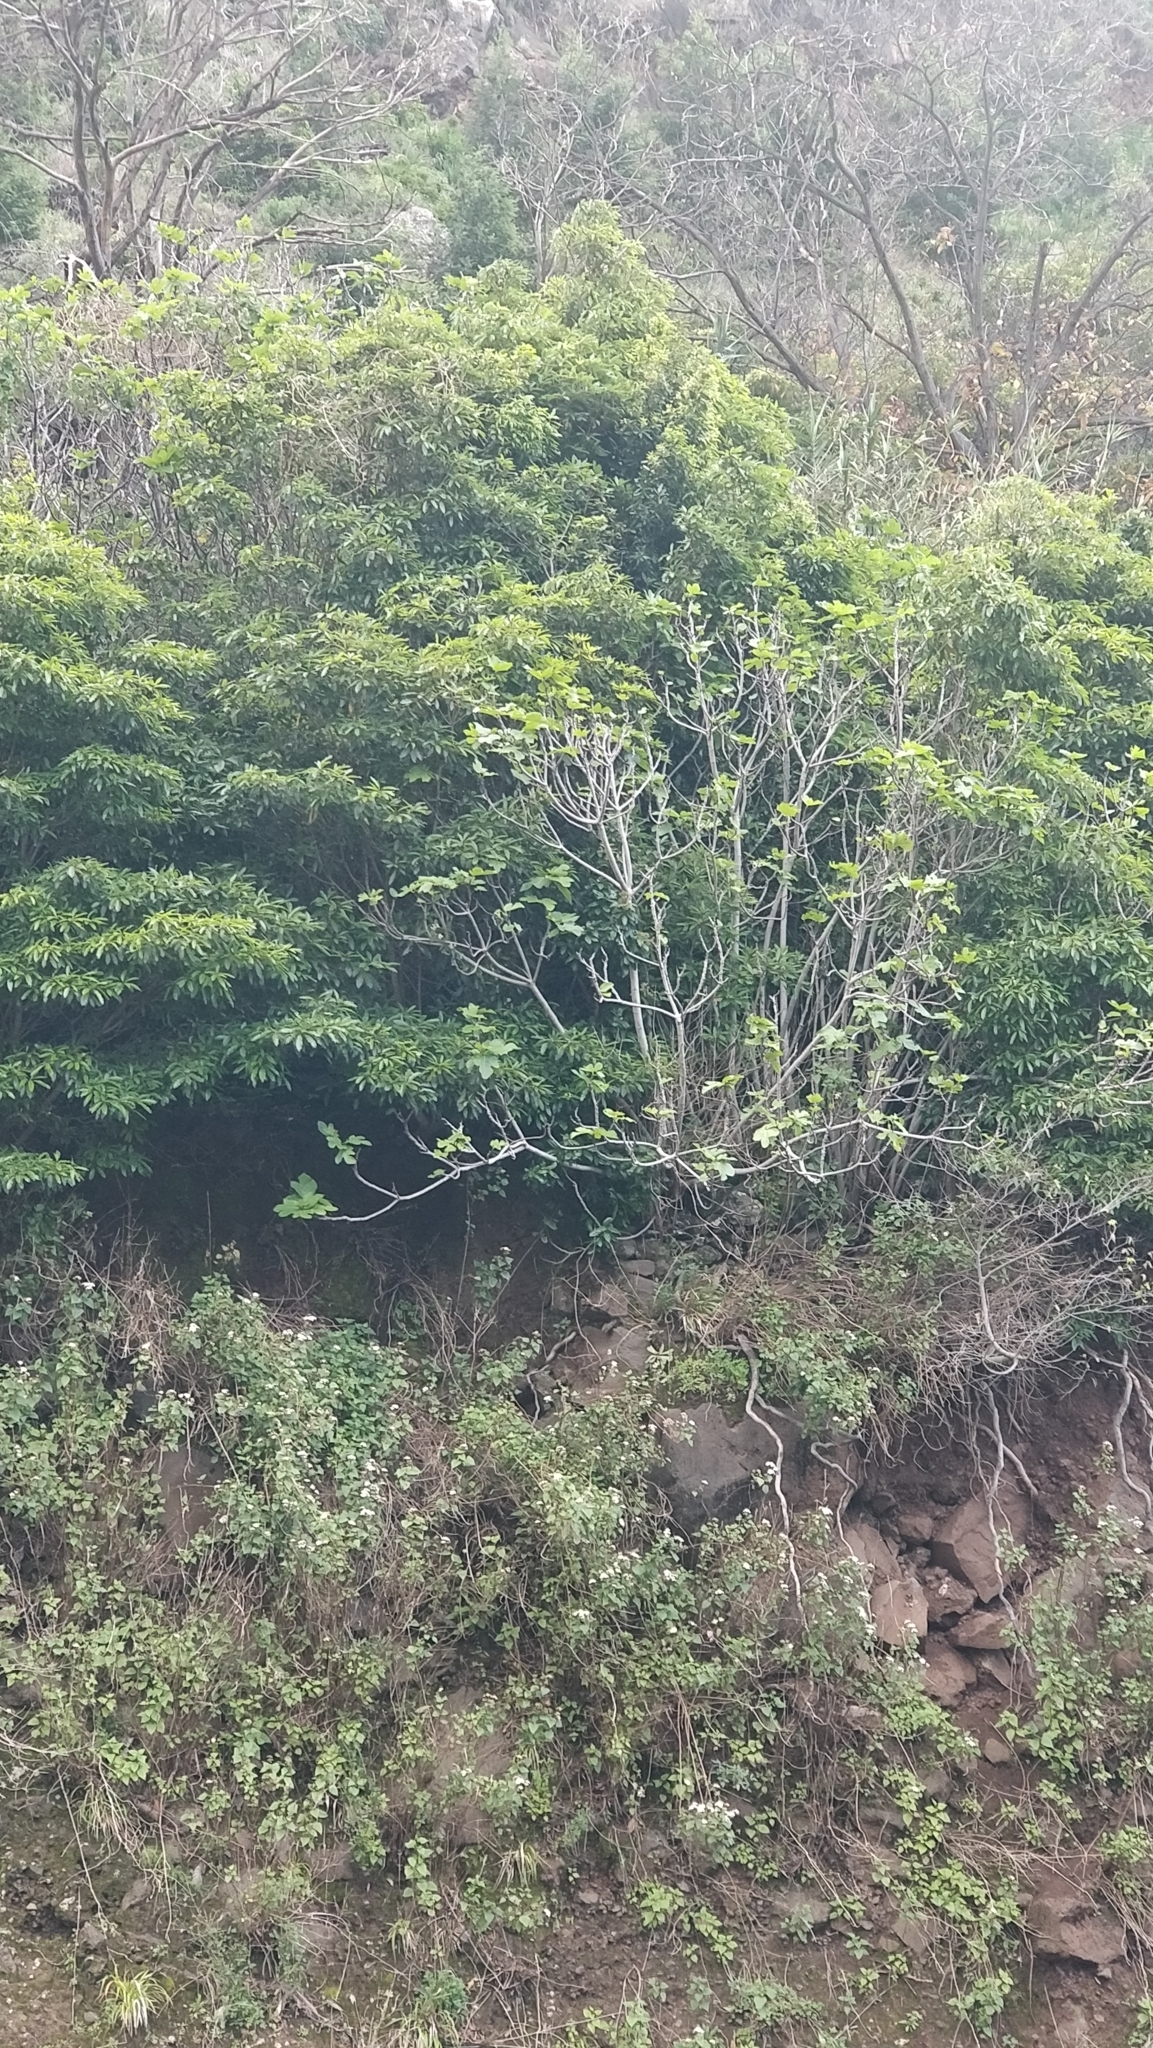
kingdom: Plantae
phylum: Tracheophyta
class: Magnoliopsida
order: Rosales
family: Moraceae
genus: Ficus
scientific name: Ficus carica
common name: Fig
